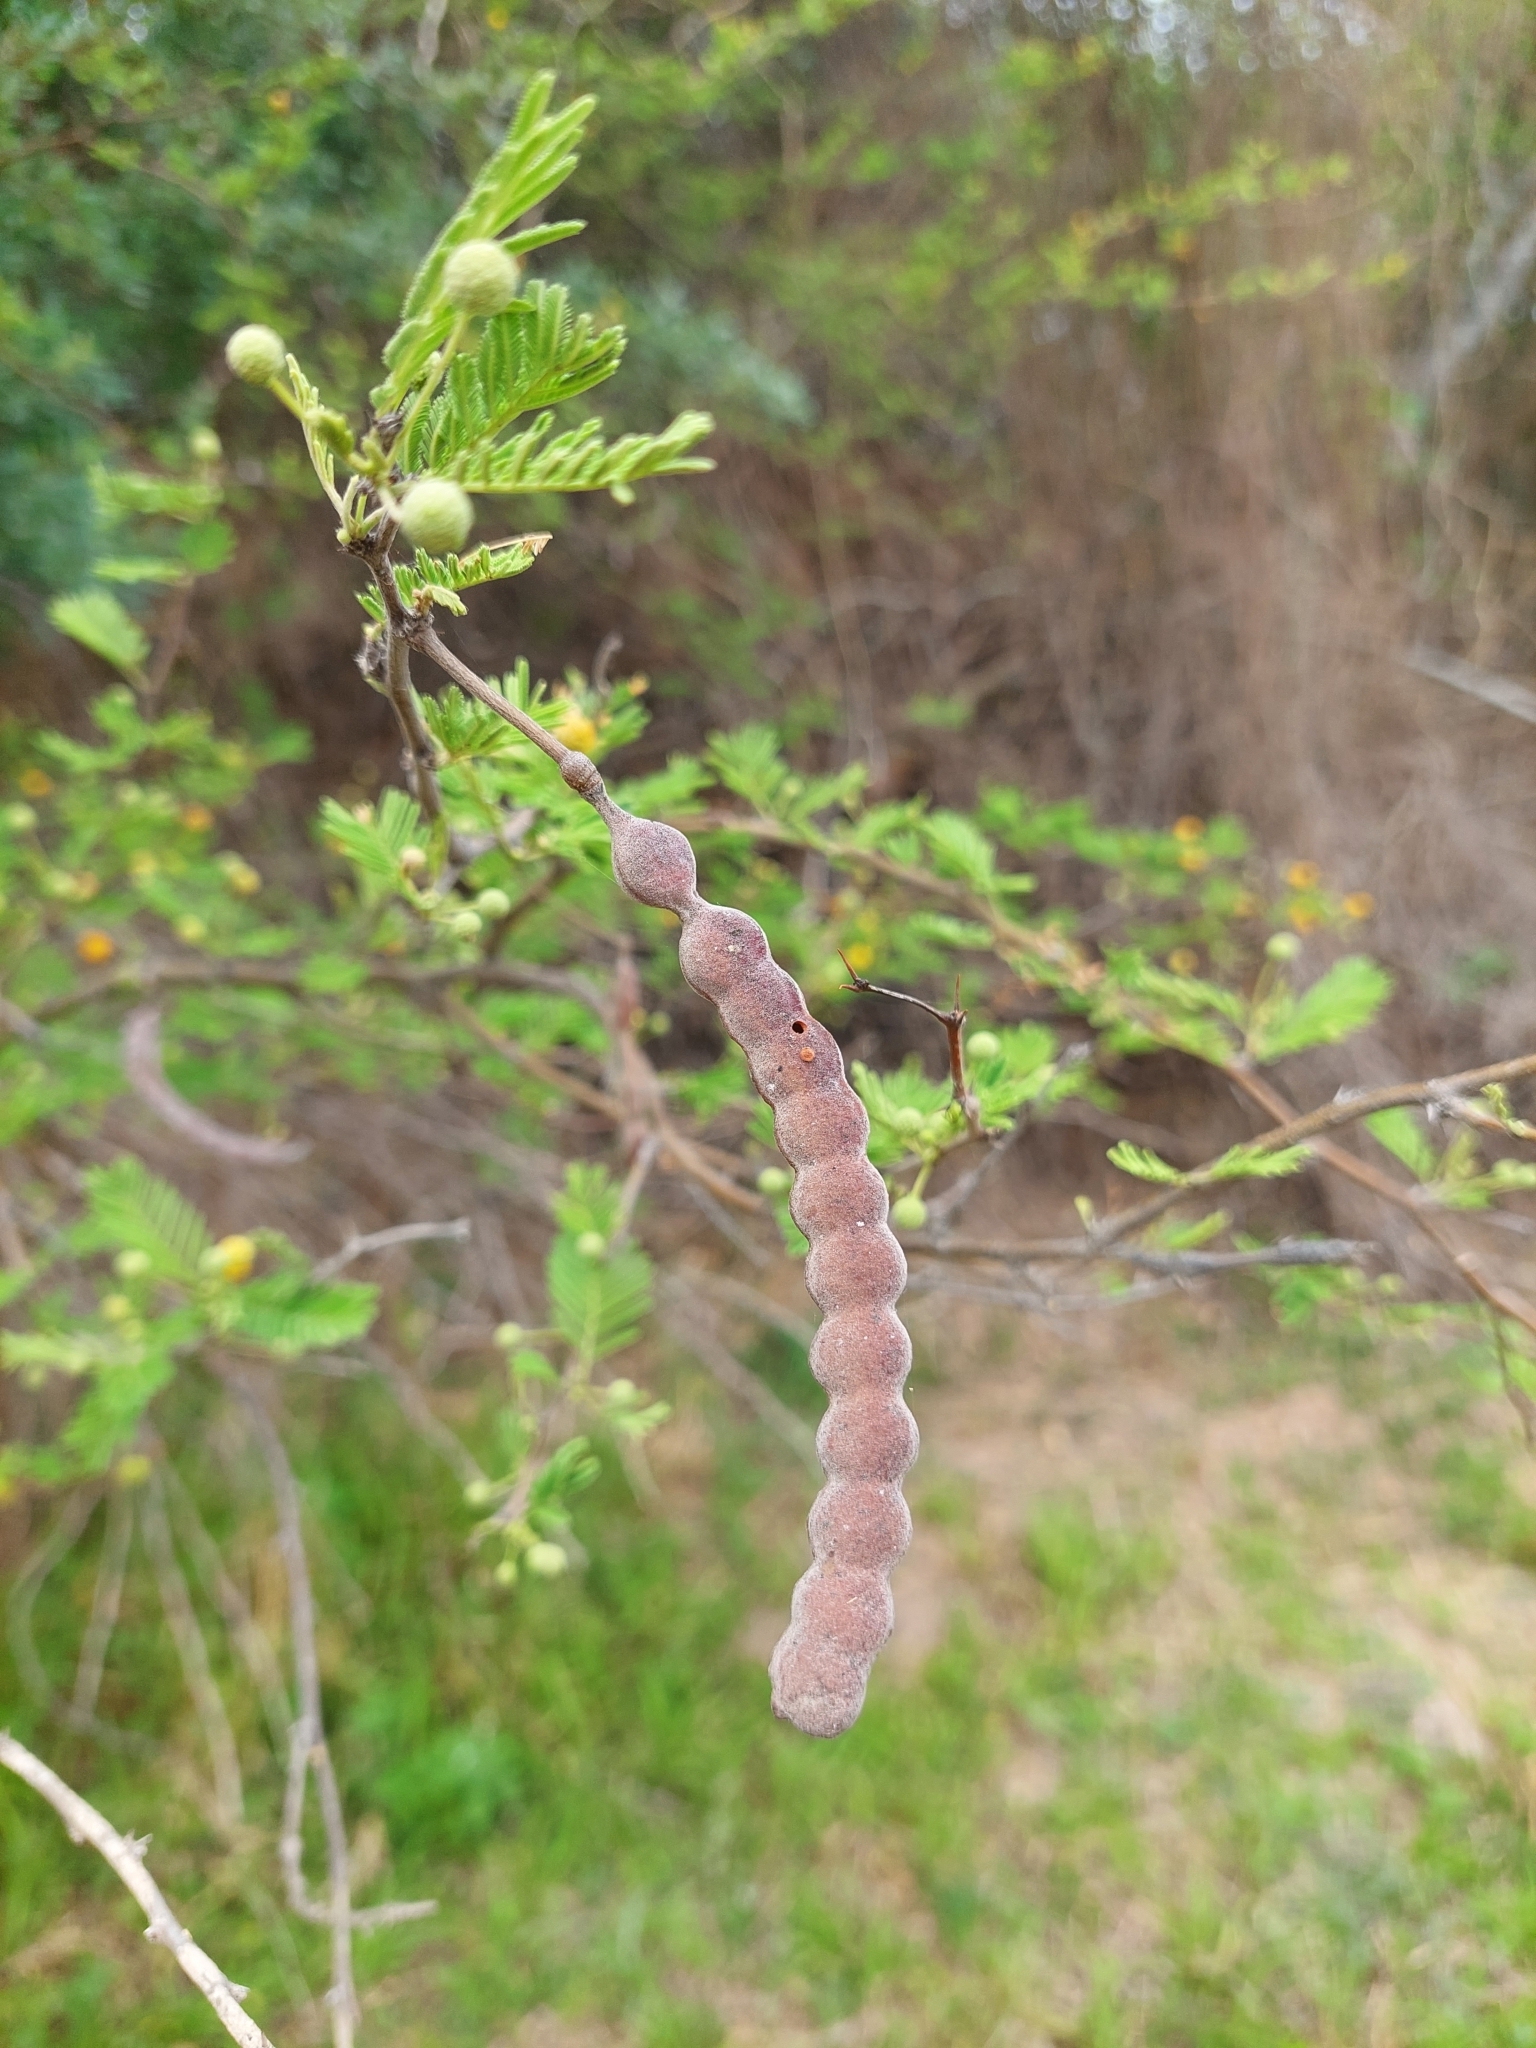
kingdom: Plantae
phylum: Tracheophyta
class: Magnoliopsida
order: Fabales
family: Fabaceae
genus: Vachellia
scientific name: Vachellia aroma
